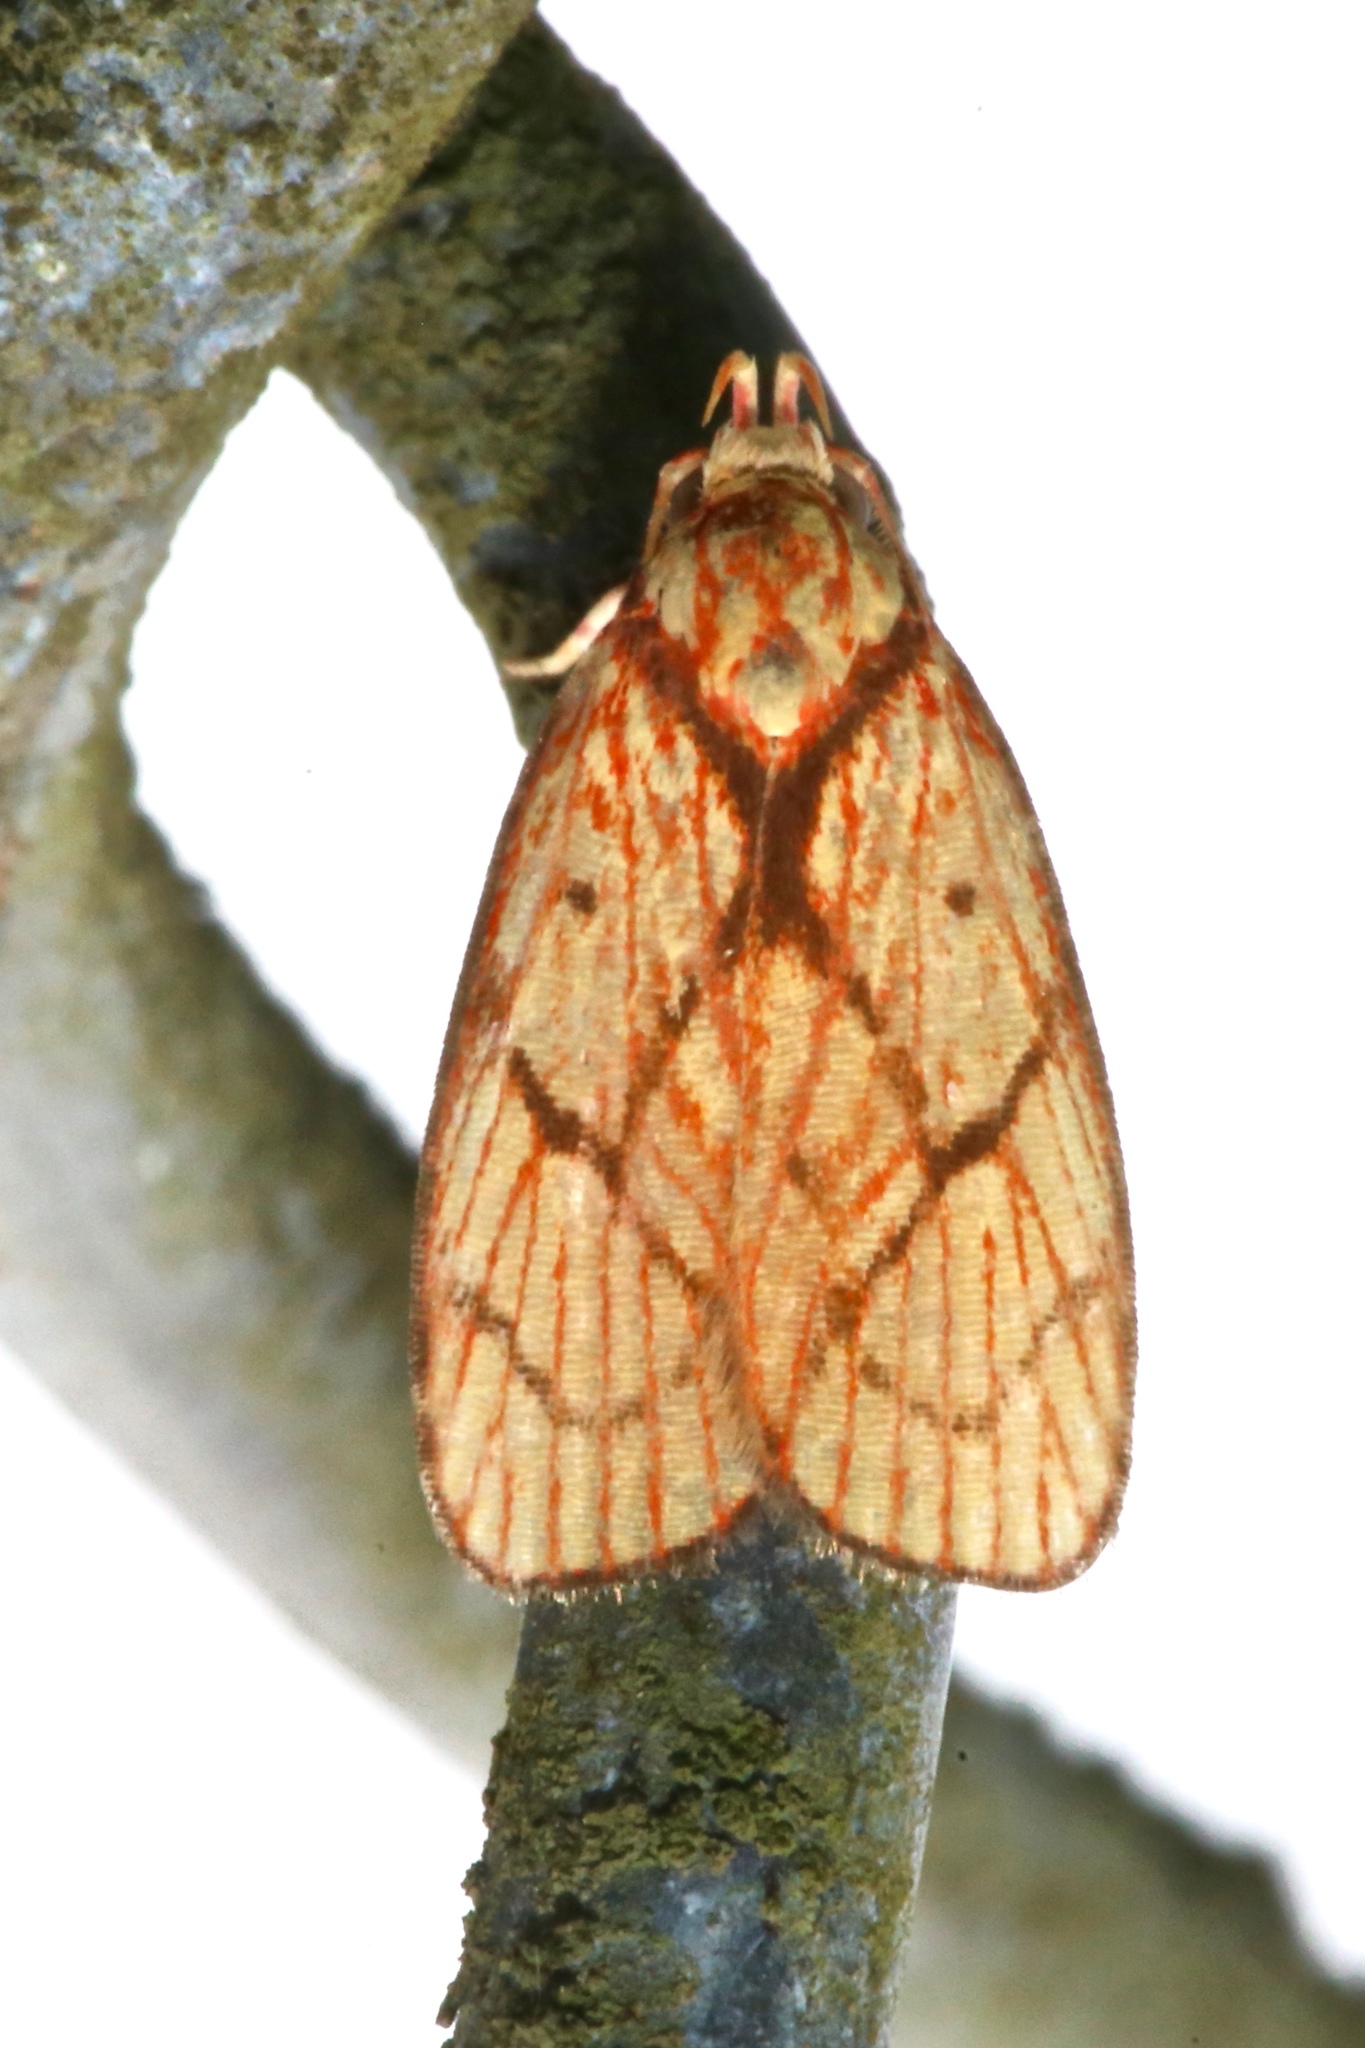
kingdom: Animalia
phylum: Arthropoda
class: Insecta
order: Lepidoptera
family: Peleopodidae
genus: Machimia
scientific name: Machimia
